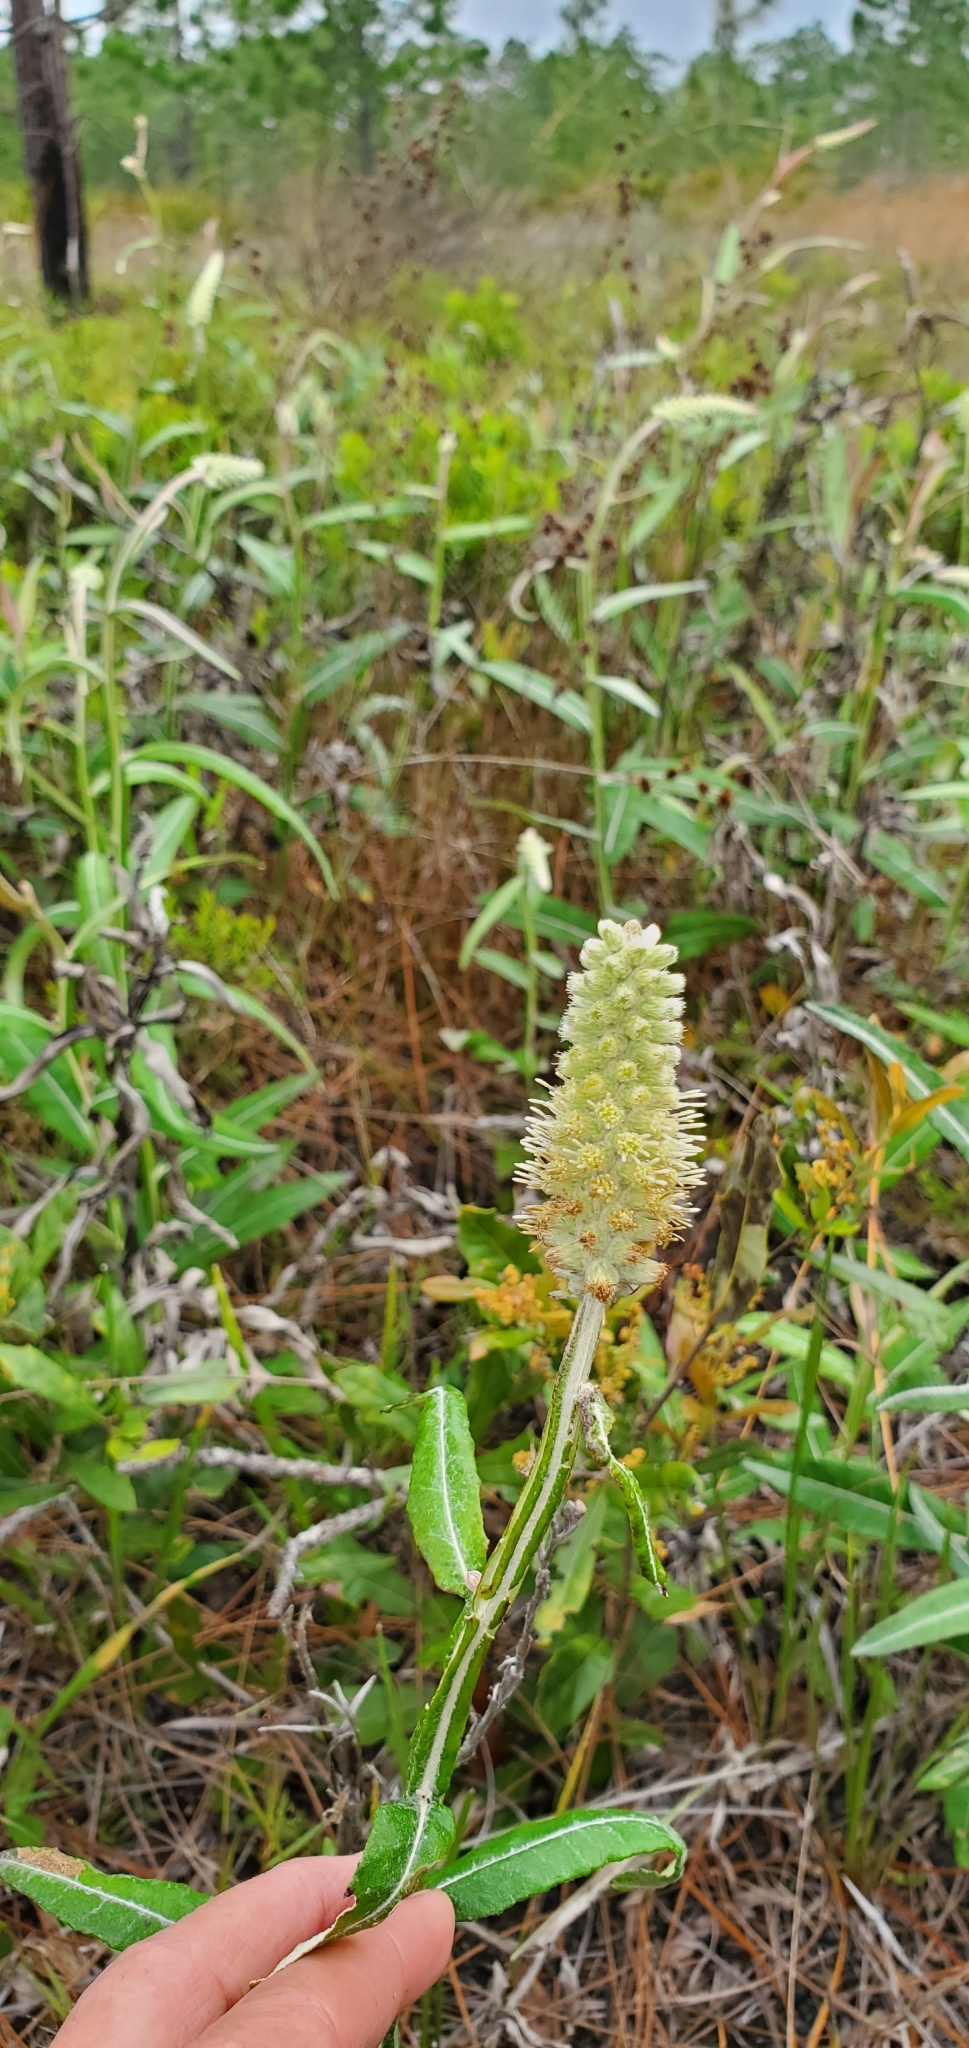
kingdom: Plantae
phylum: Tracheophyta
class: Magnoliopsida
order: Asterales
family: Asteraceae
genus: Pterocaulon
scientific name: Pterocaulon pycnostachyum
